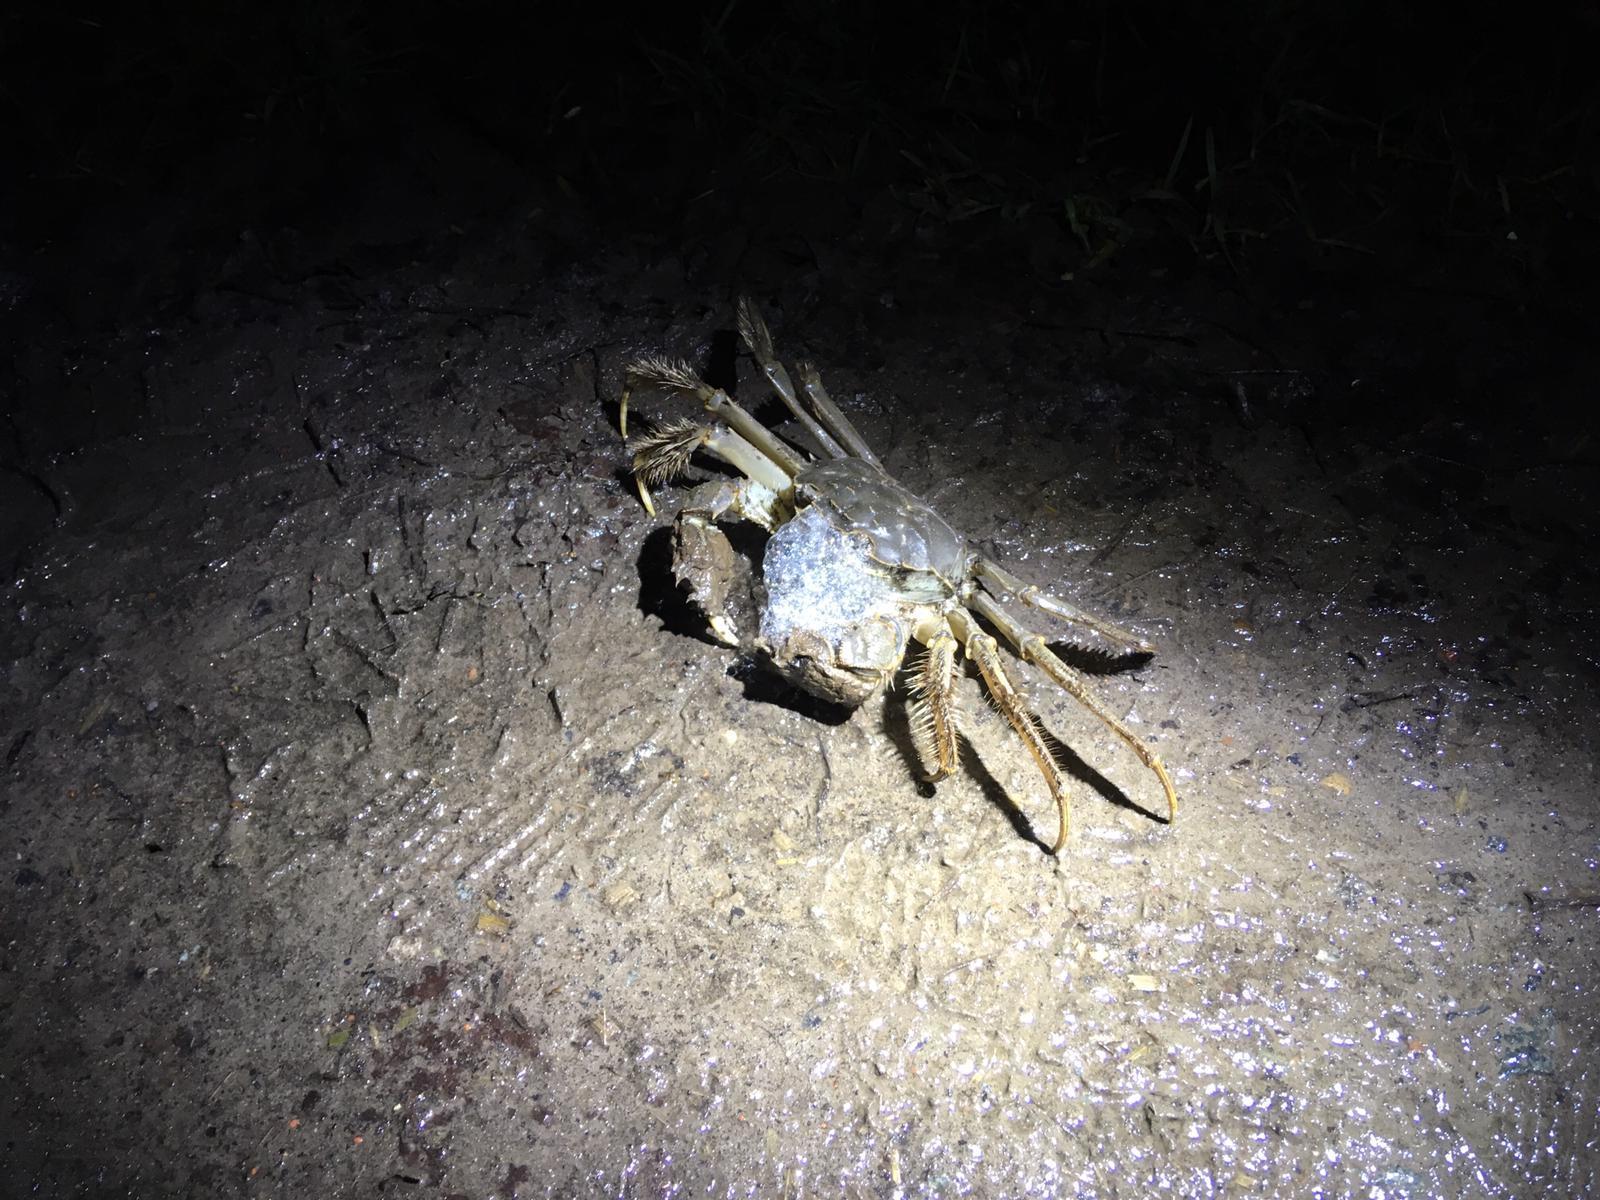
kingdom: Animalia
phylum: Arthropoda
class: Malacostraca
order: Decapoda
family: Varunidae
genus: Eriocheir
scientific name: Eriocheir sinensis
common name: Chinese mitten crab
